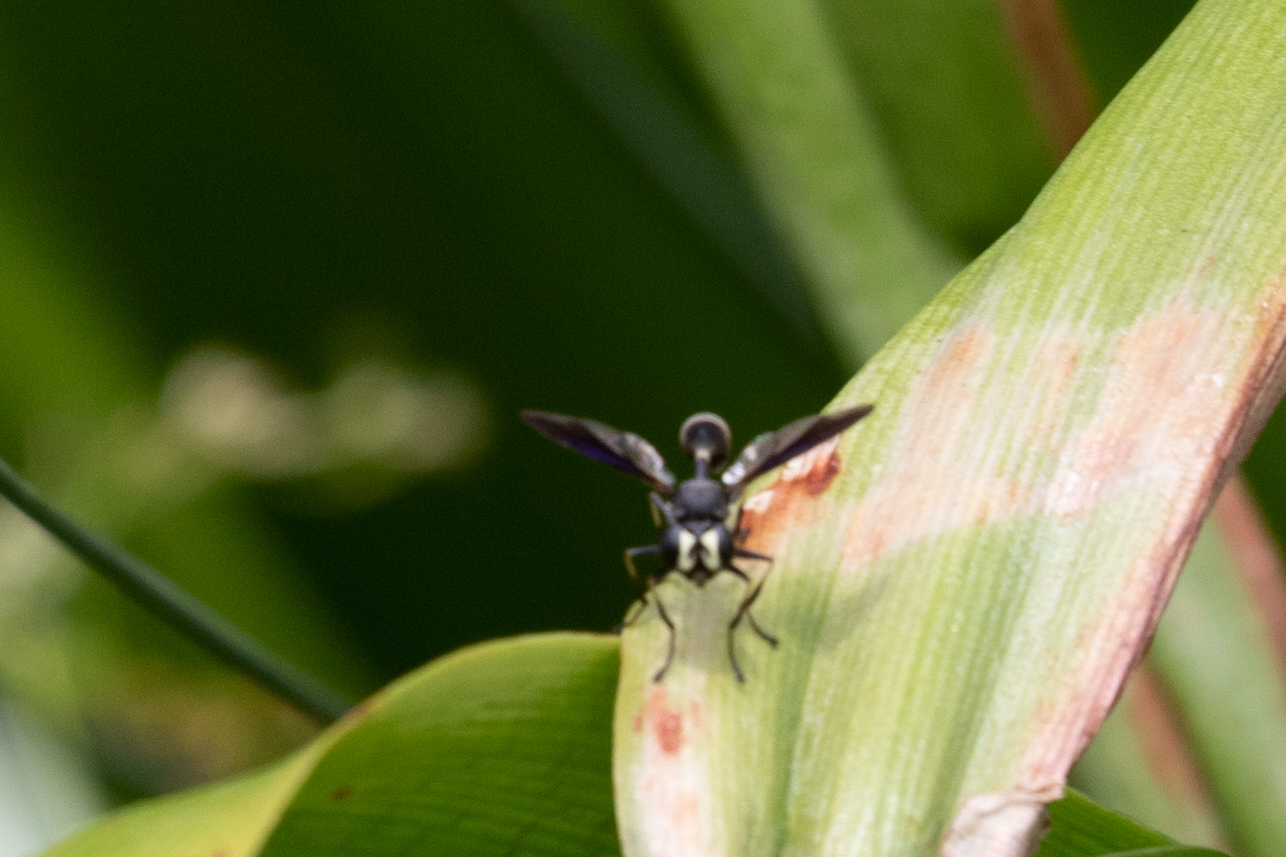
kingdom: Animalia
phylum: Arthropoda
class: Insecta
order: Diptera
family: Conopidae
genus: Physocephala
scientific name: Physocephala tibialis
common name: Common eastern physocephala
